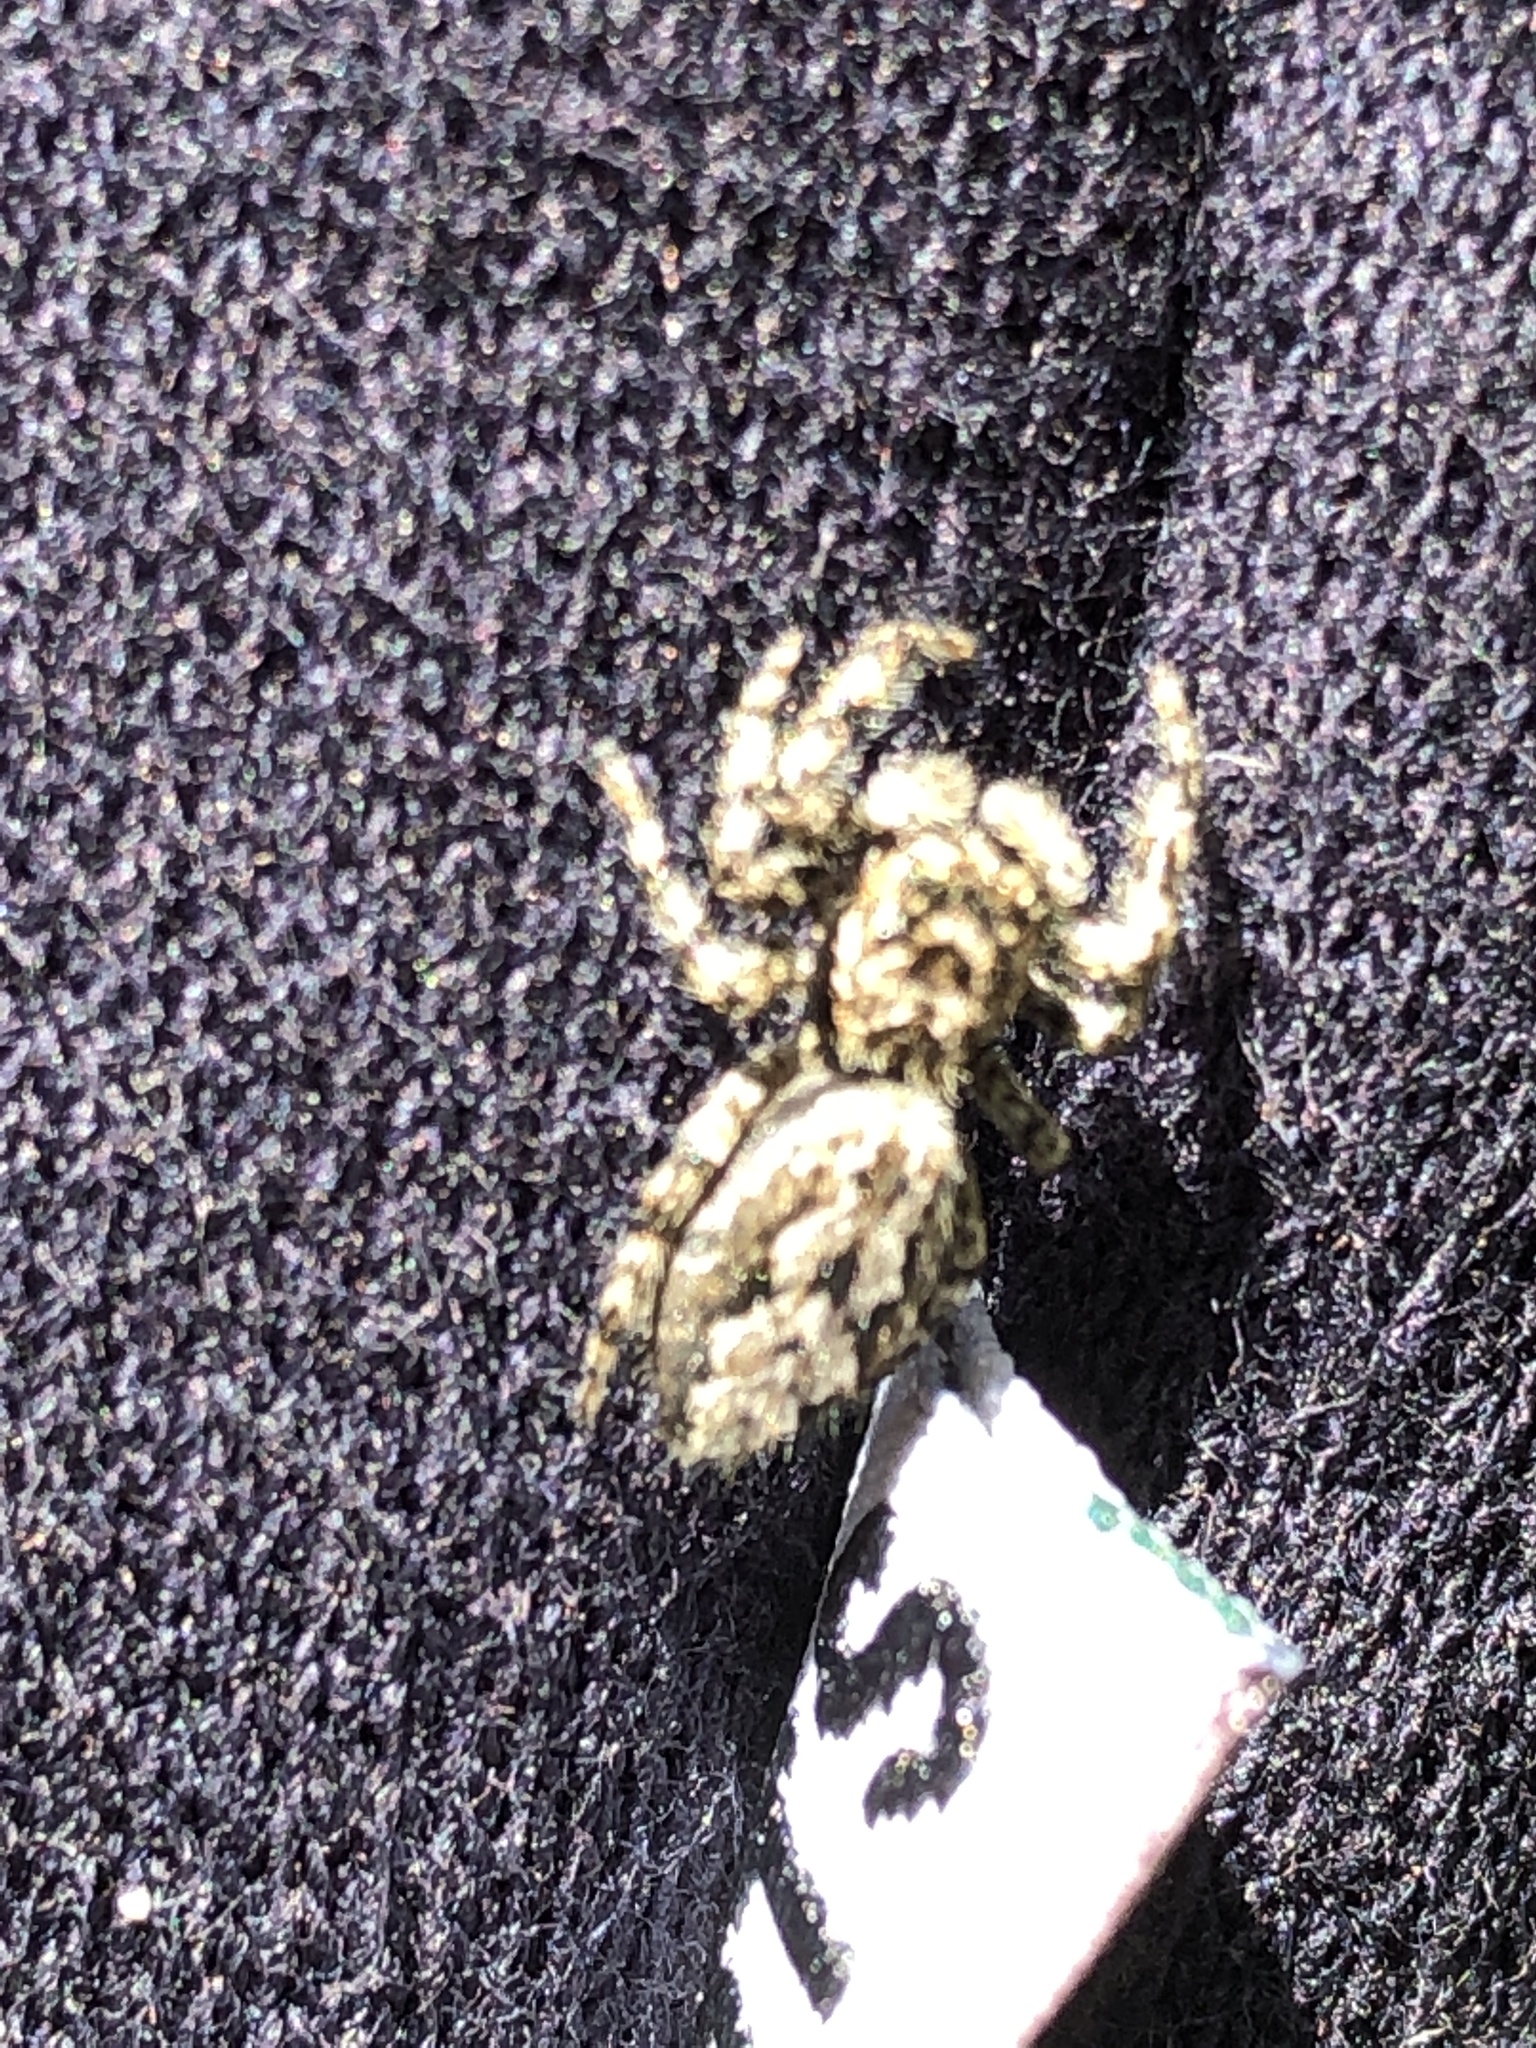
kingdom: Animalia
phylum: Arthropoda
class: Arachnida
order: Araneae
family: Salticidae
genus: Platycryptus
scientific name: Platycryptus undatus
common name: Tan jumping spider
